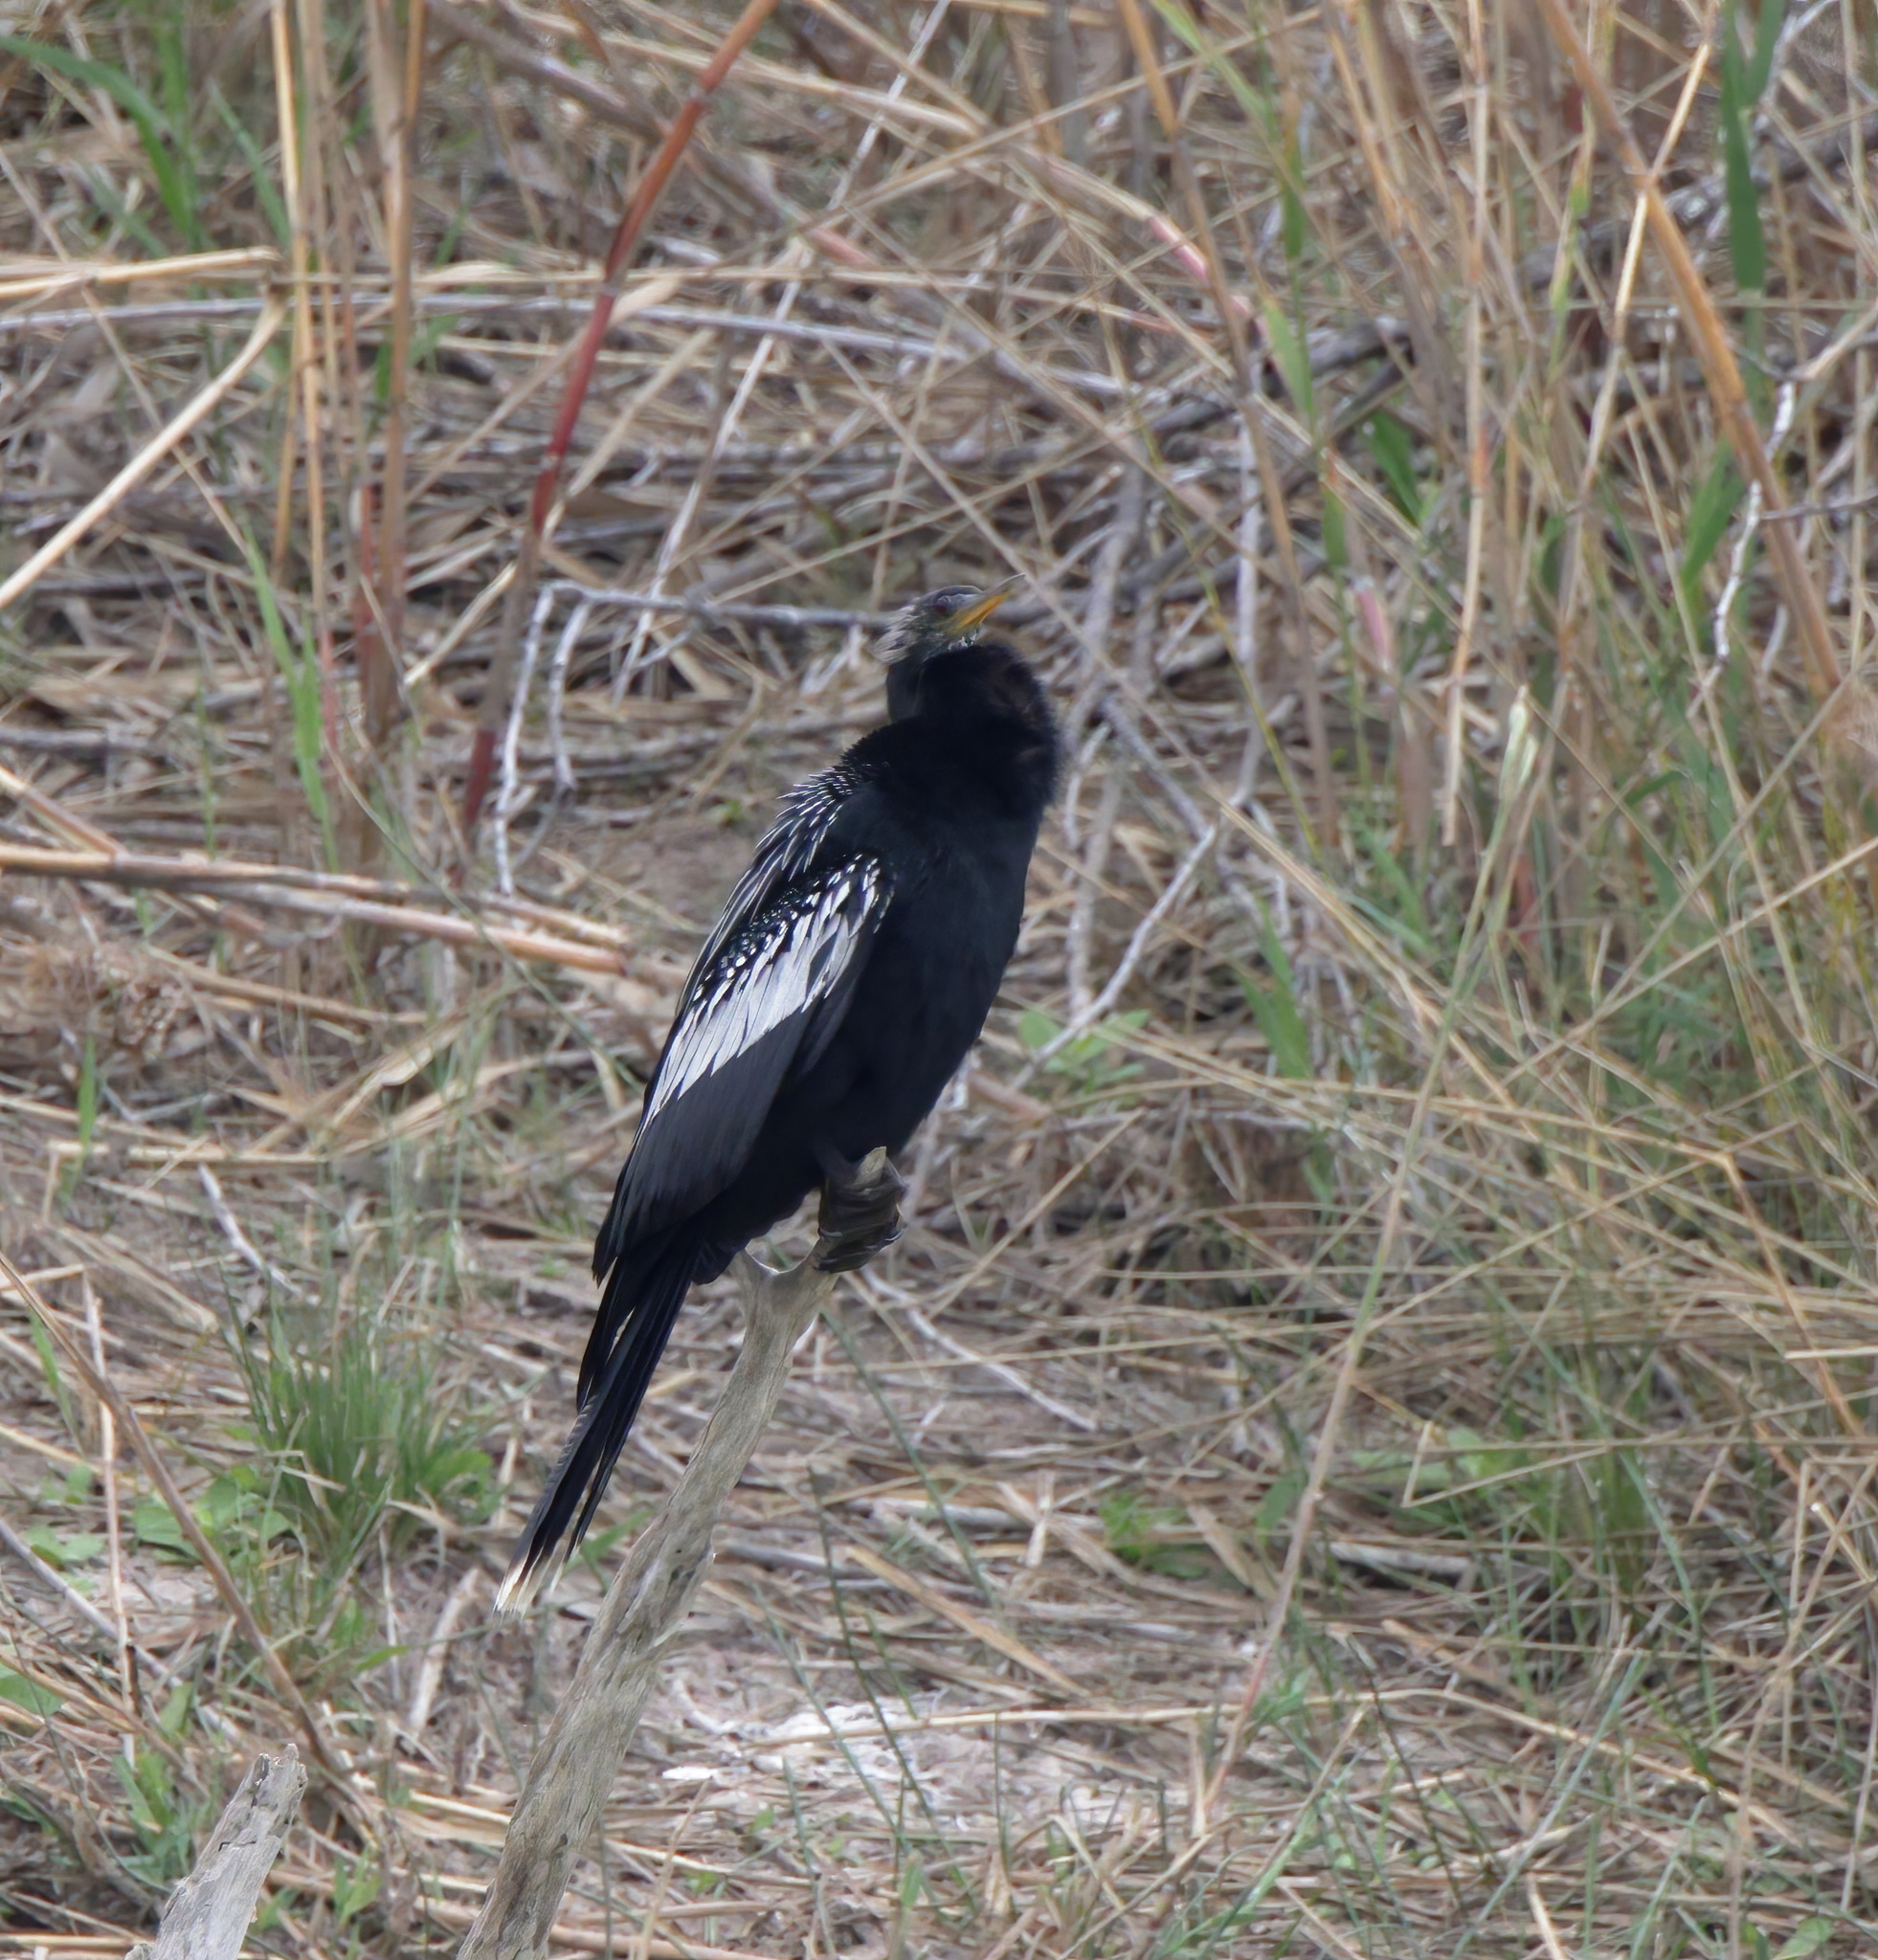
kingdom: Animalia
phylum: Chordata
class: Aves
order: Suliformes
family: Anhingidae
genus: Anhinga
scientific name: Anhinga anhinga
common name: Anhinga
